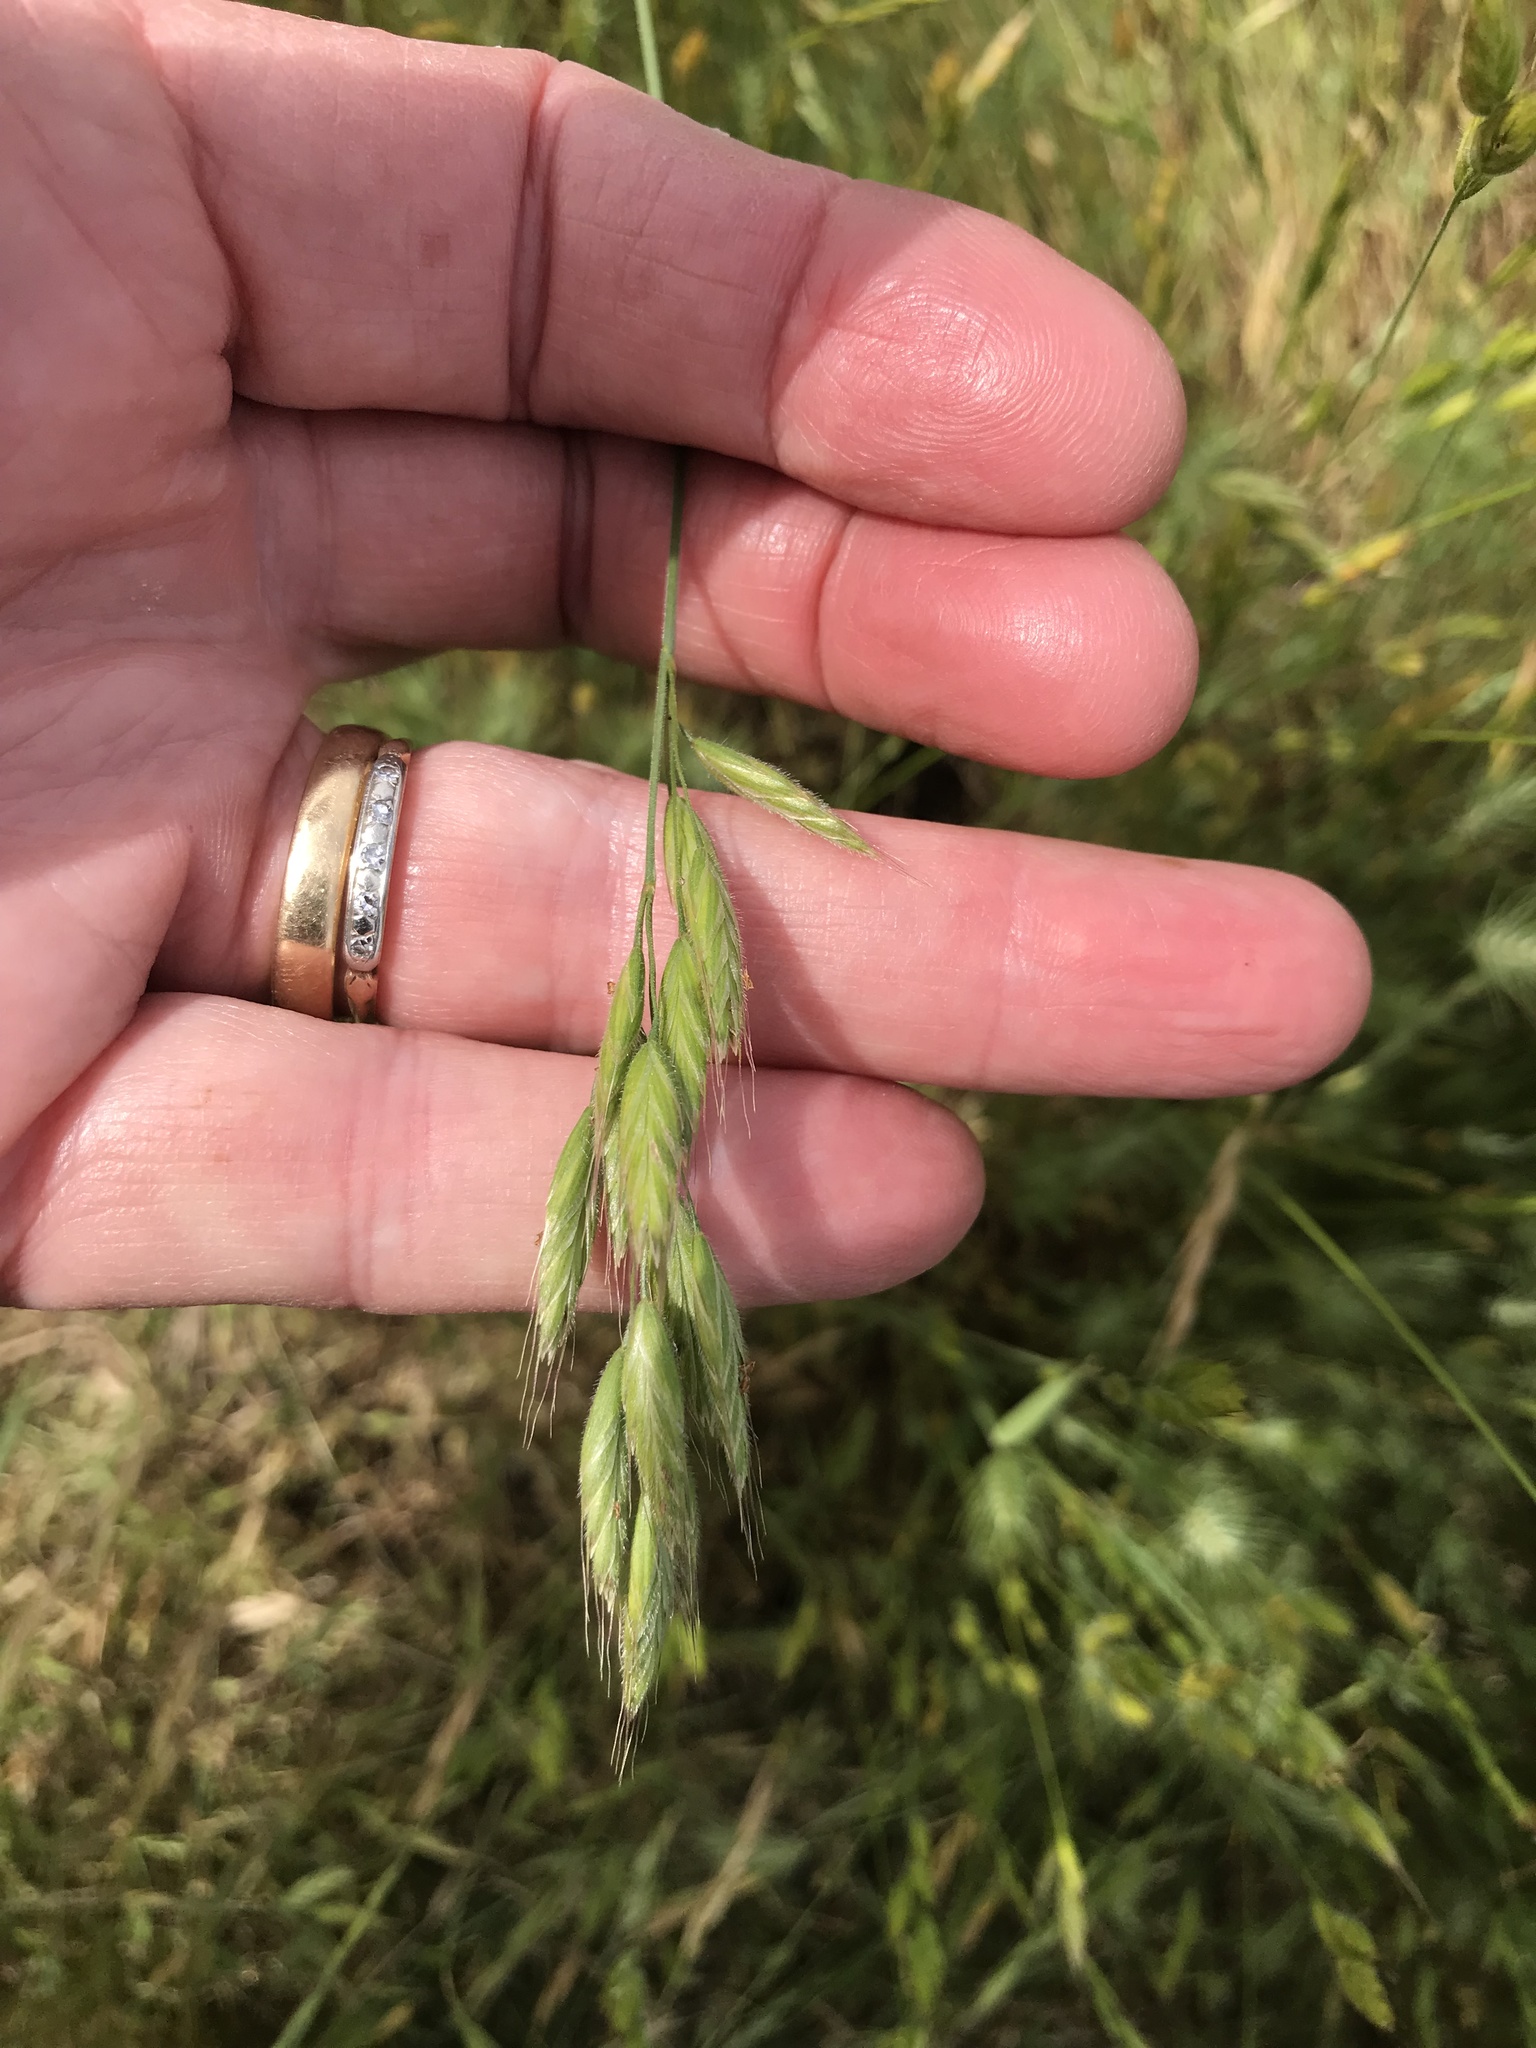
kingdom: Plantae
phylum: Tracheophyta
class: Liliopsida
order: Poales
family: Poaceae
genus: Bromus
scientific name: Bromus hordeaceus
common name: Soft brome
